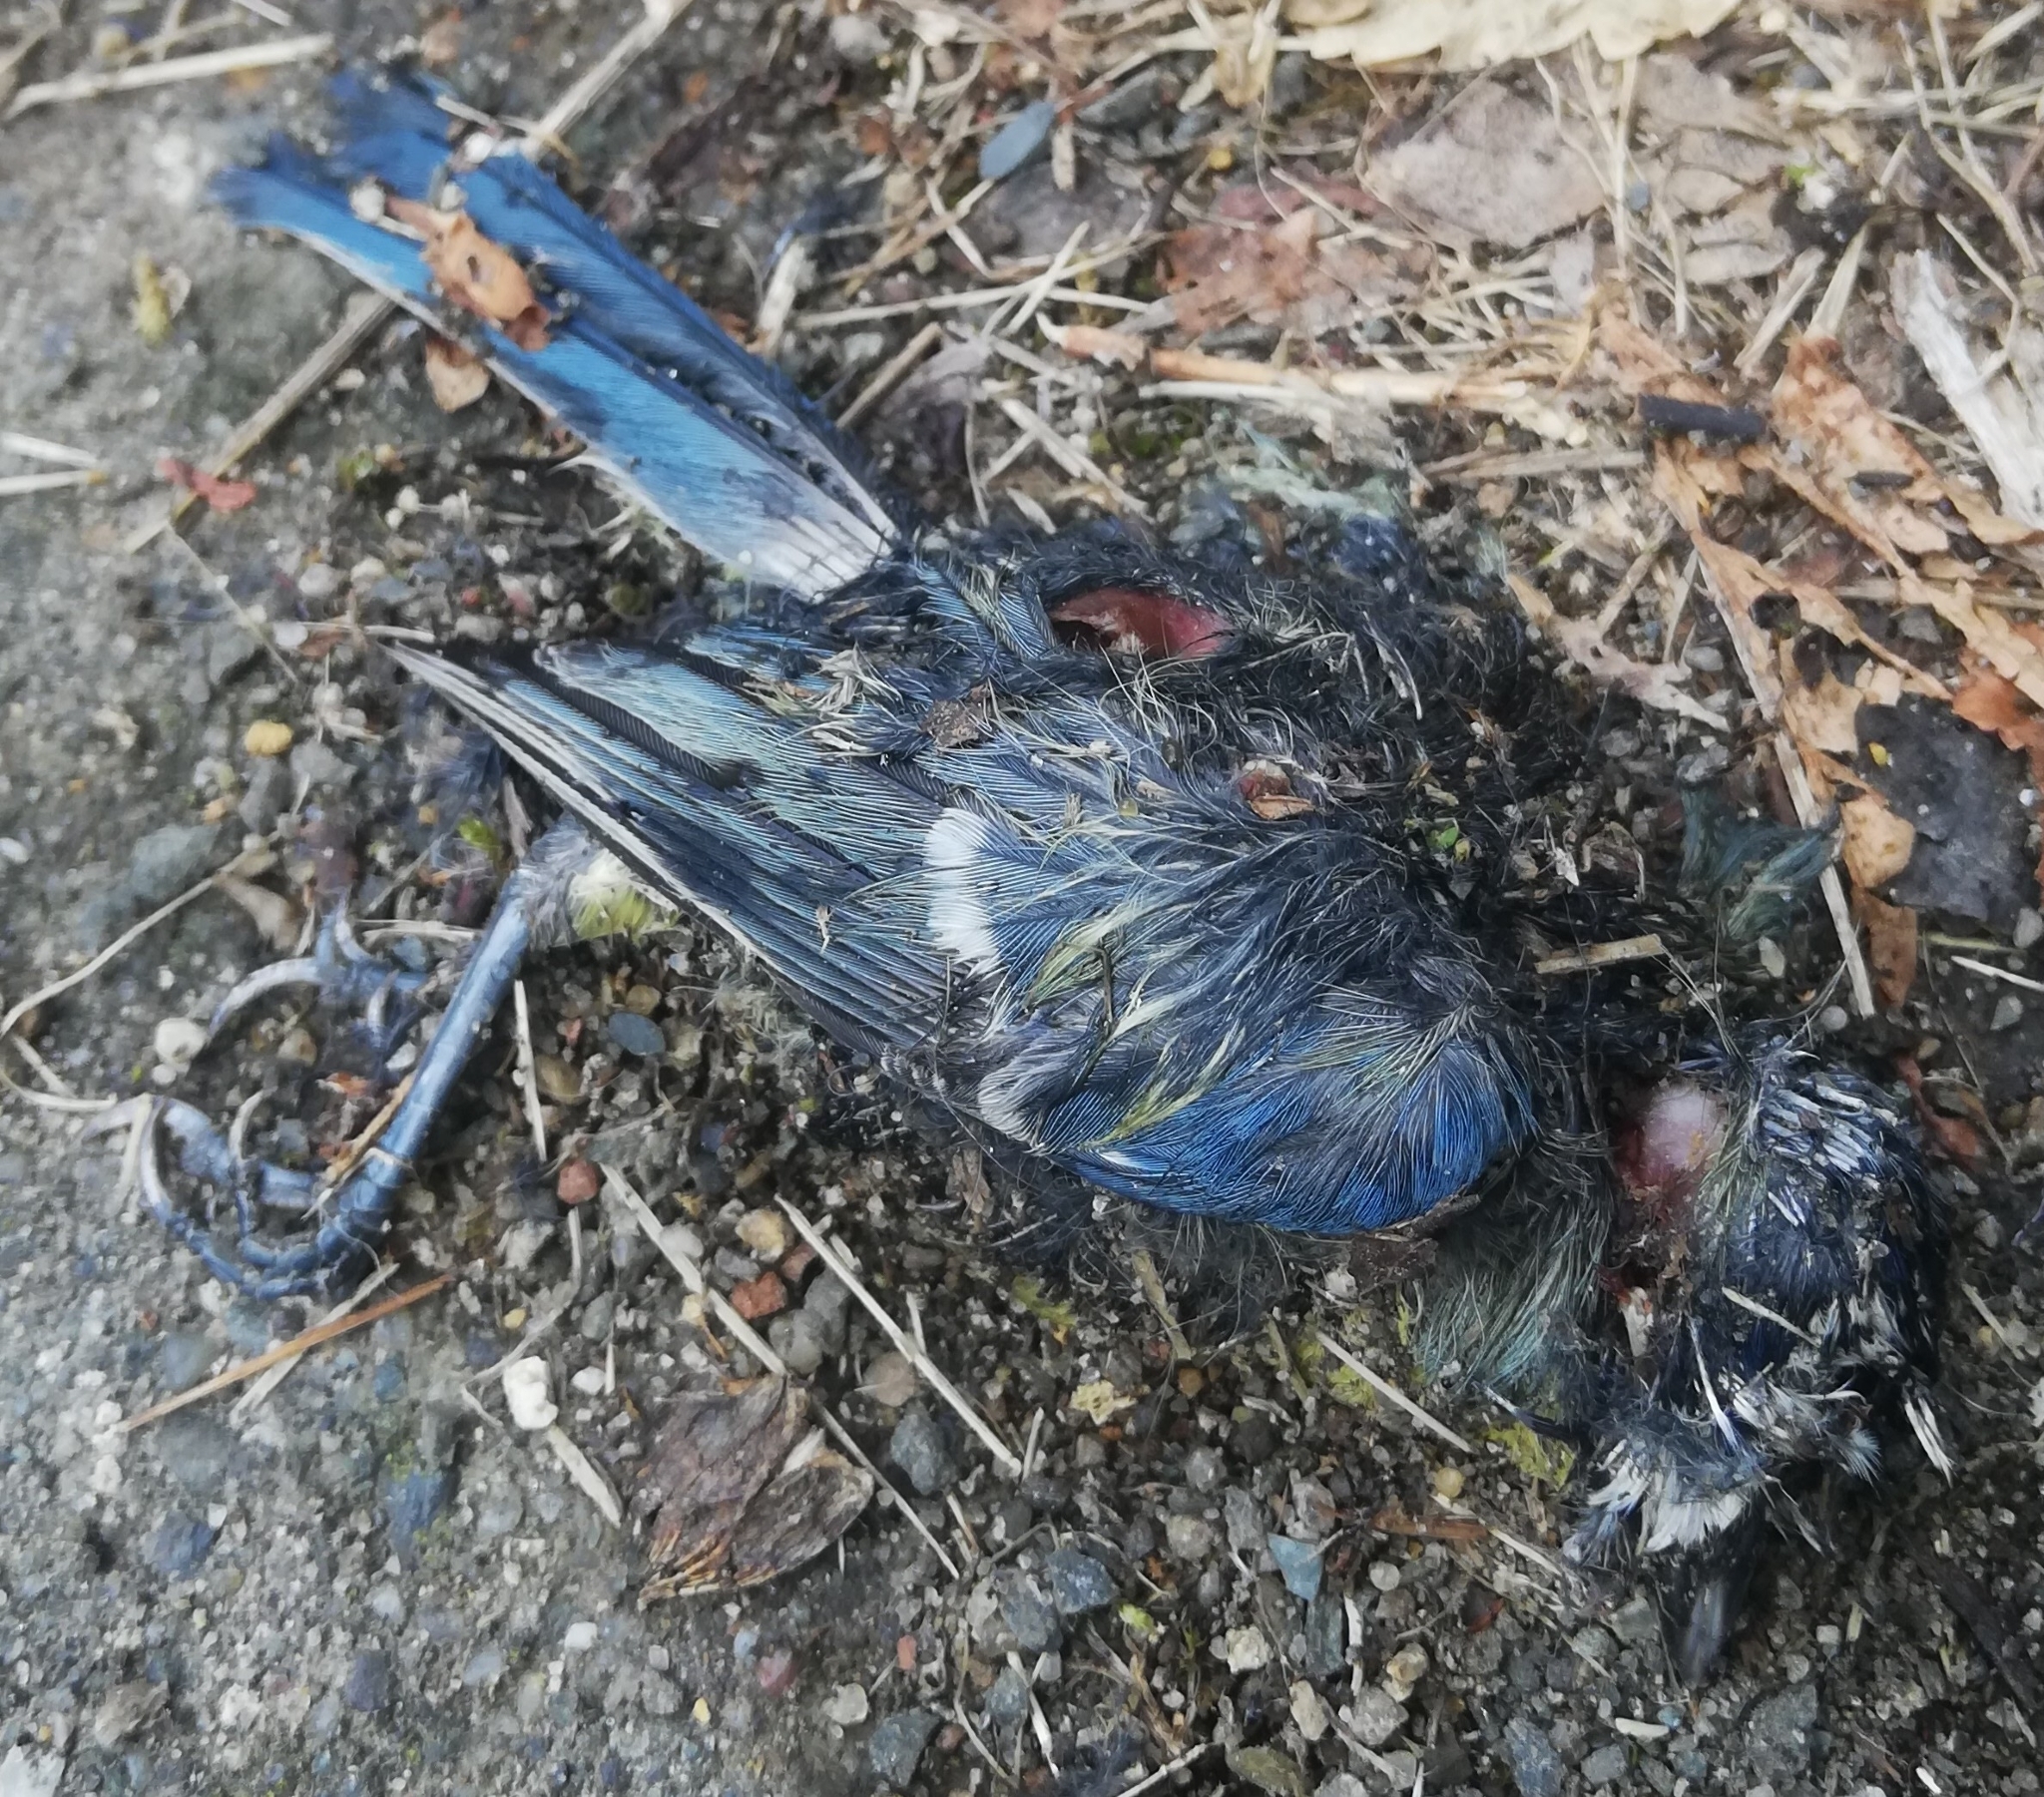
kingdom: Animalia
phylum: Chordata
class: Aves
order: Passeriformes
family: Paridae
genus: Cyanistes
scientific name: Cyanistes caeruleus
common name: Eurasian blue tit
